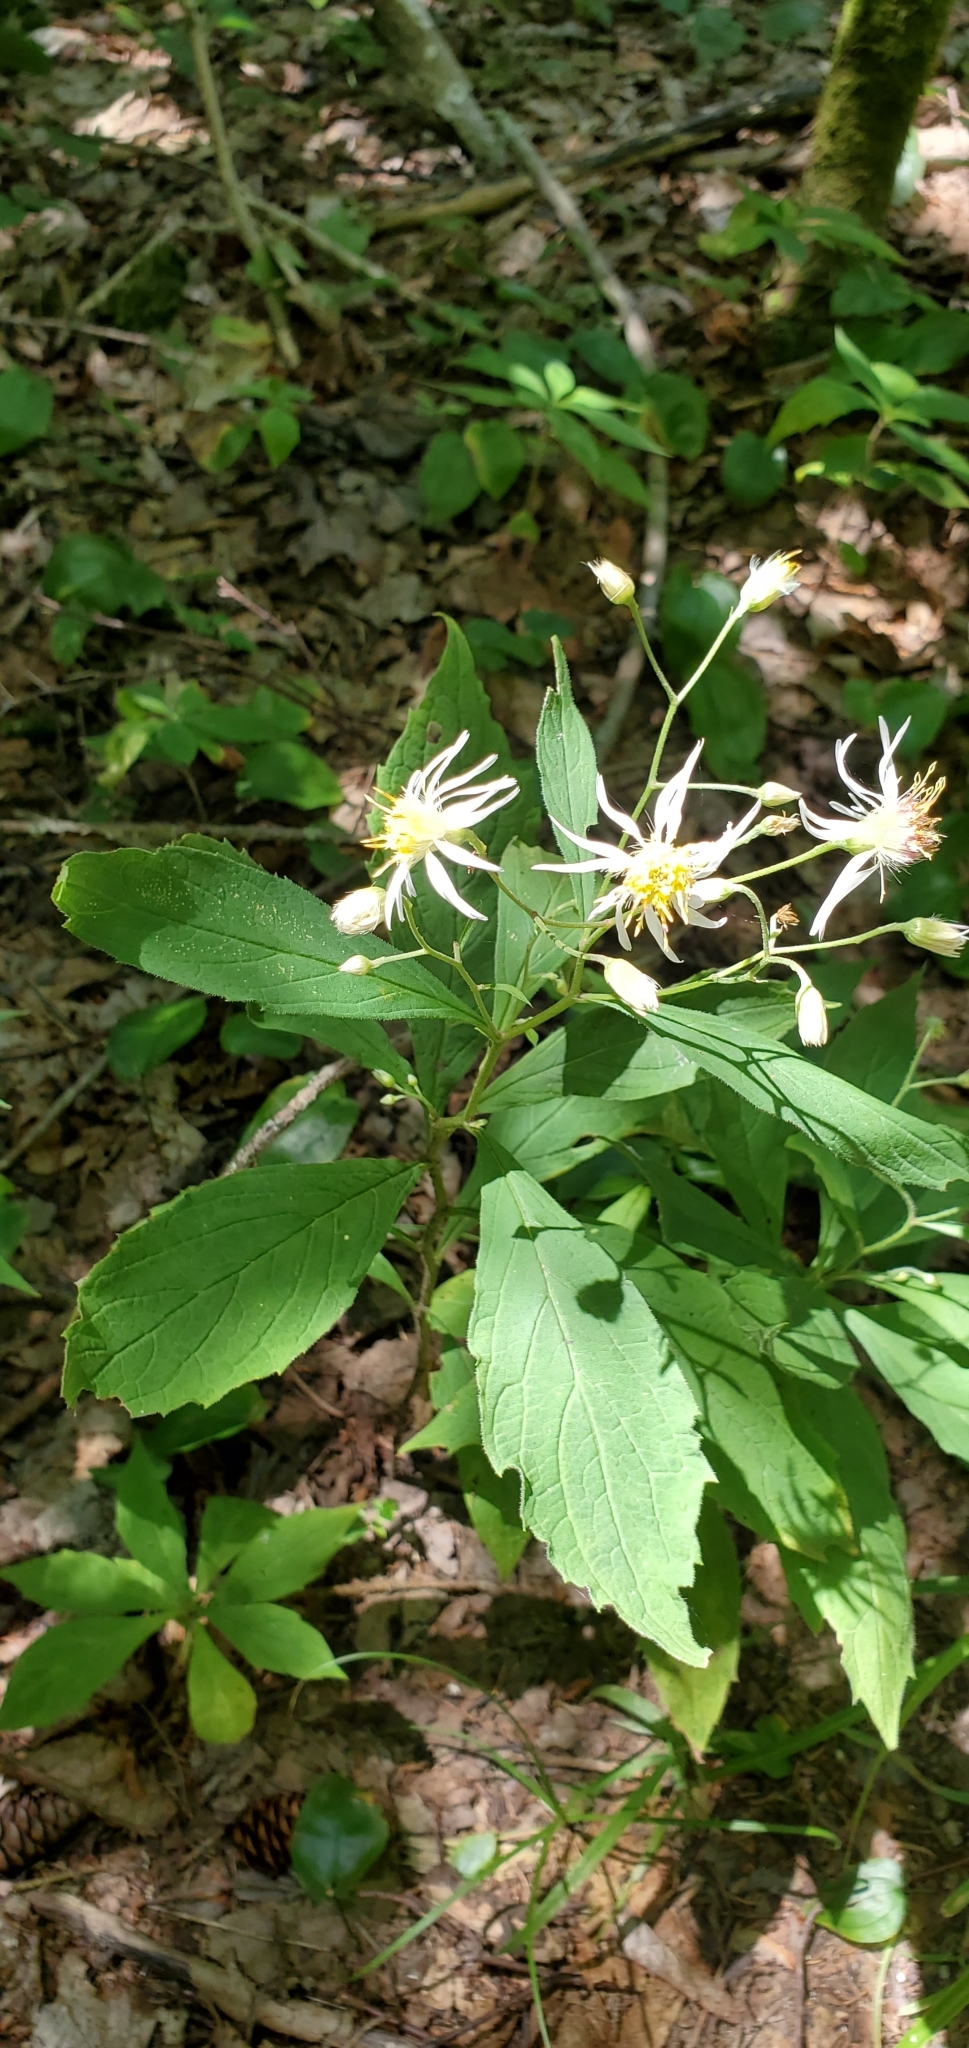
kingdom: Plantae
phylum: Tracheophyta
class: Magnoliopsida
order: Asterales
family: Asteraceae
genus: Oclemena
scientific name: Oclemena acuminata
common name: Mountain aster
